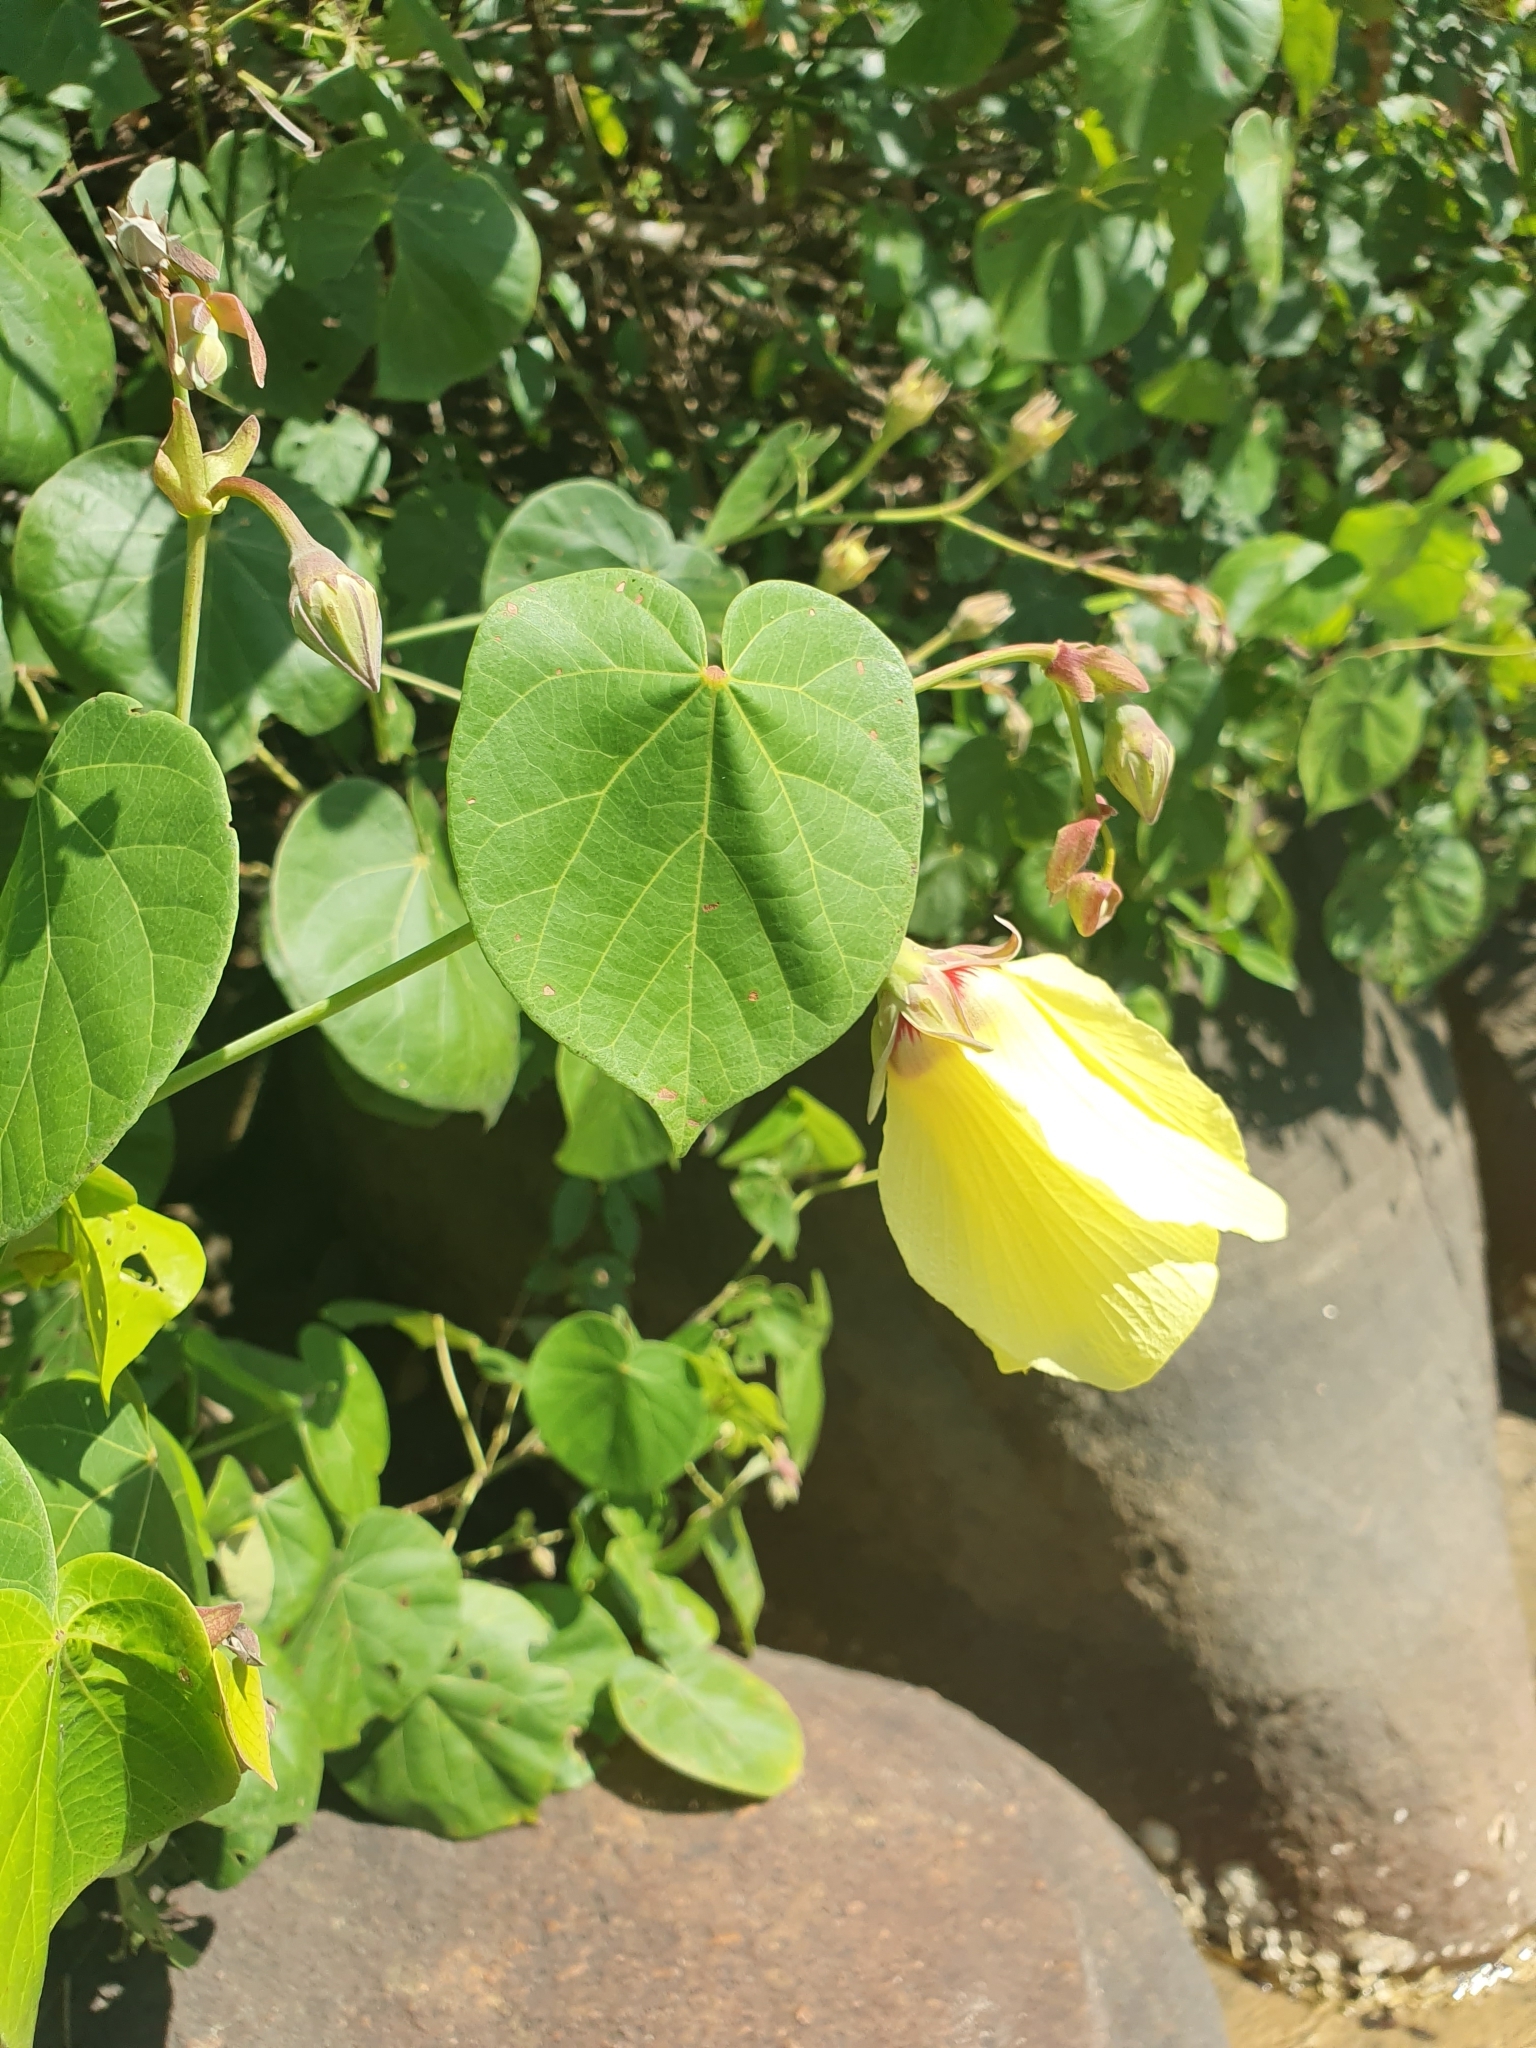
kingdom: Plantae
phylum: Tracheophyta
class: Magnoliopsida
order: Malvales
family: Malvaceae
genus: Talipariti
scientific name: Talipariti tiliaceum
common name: Sea hibiscus
